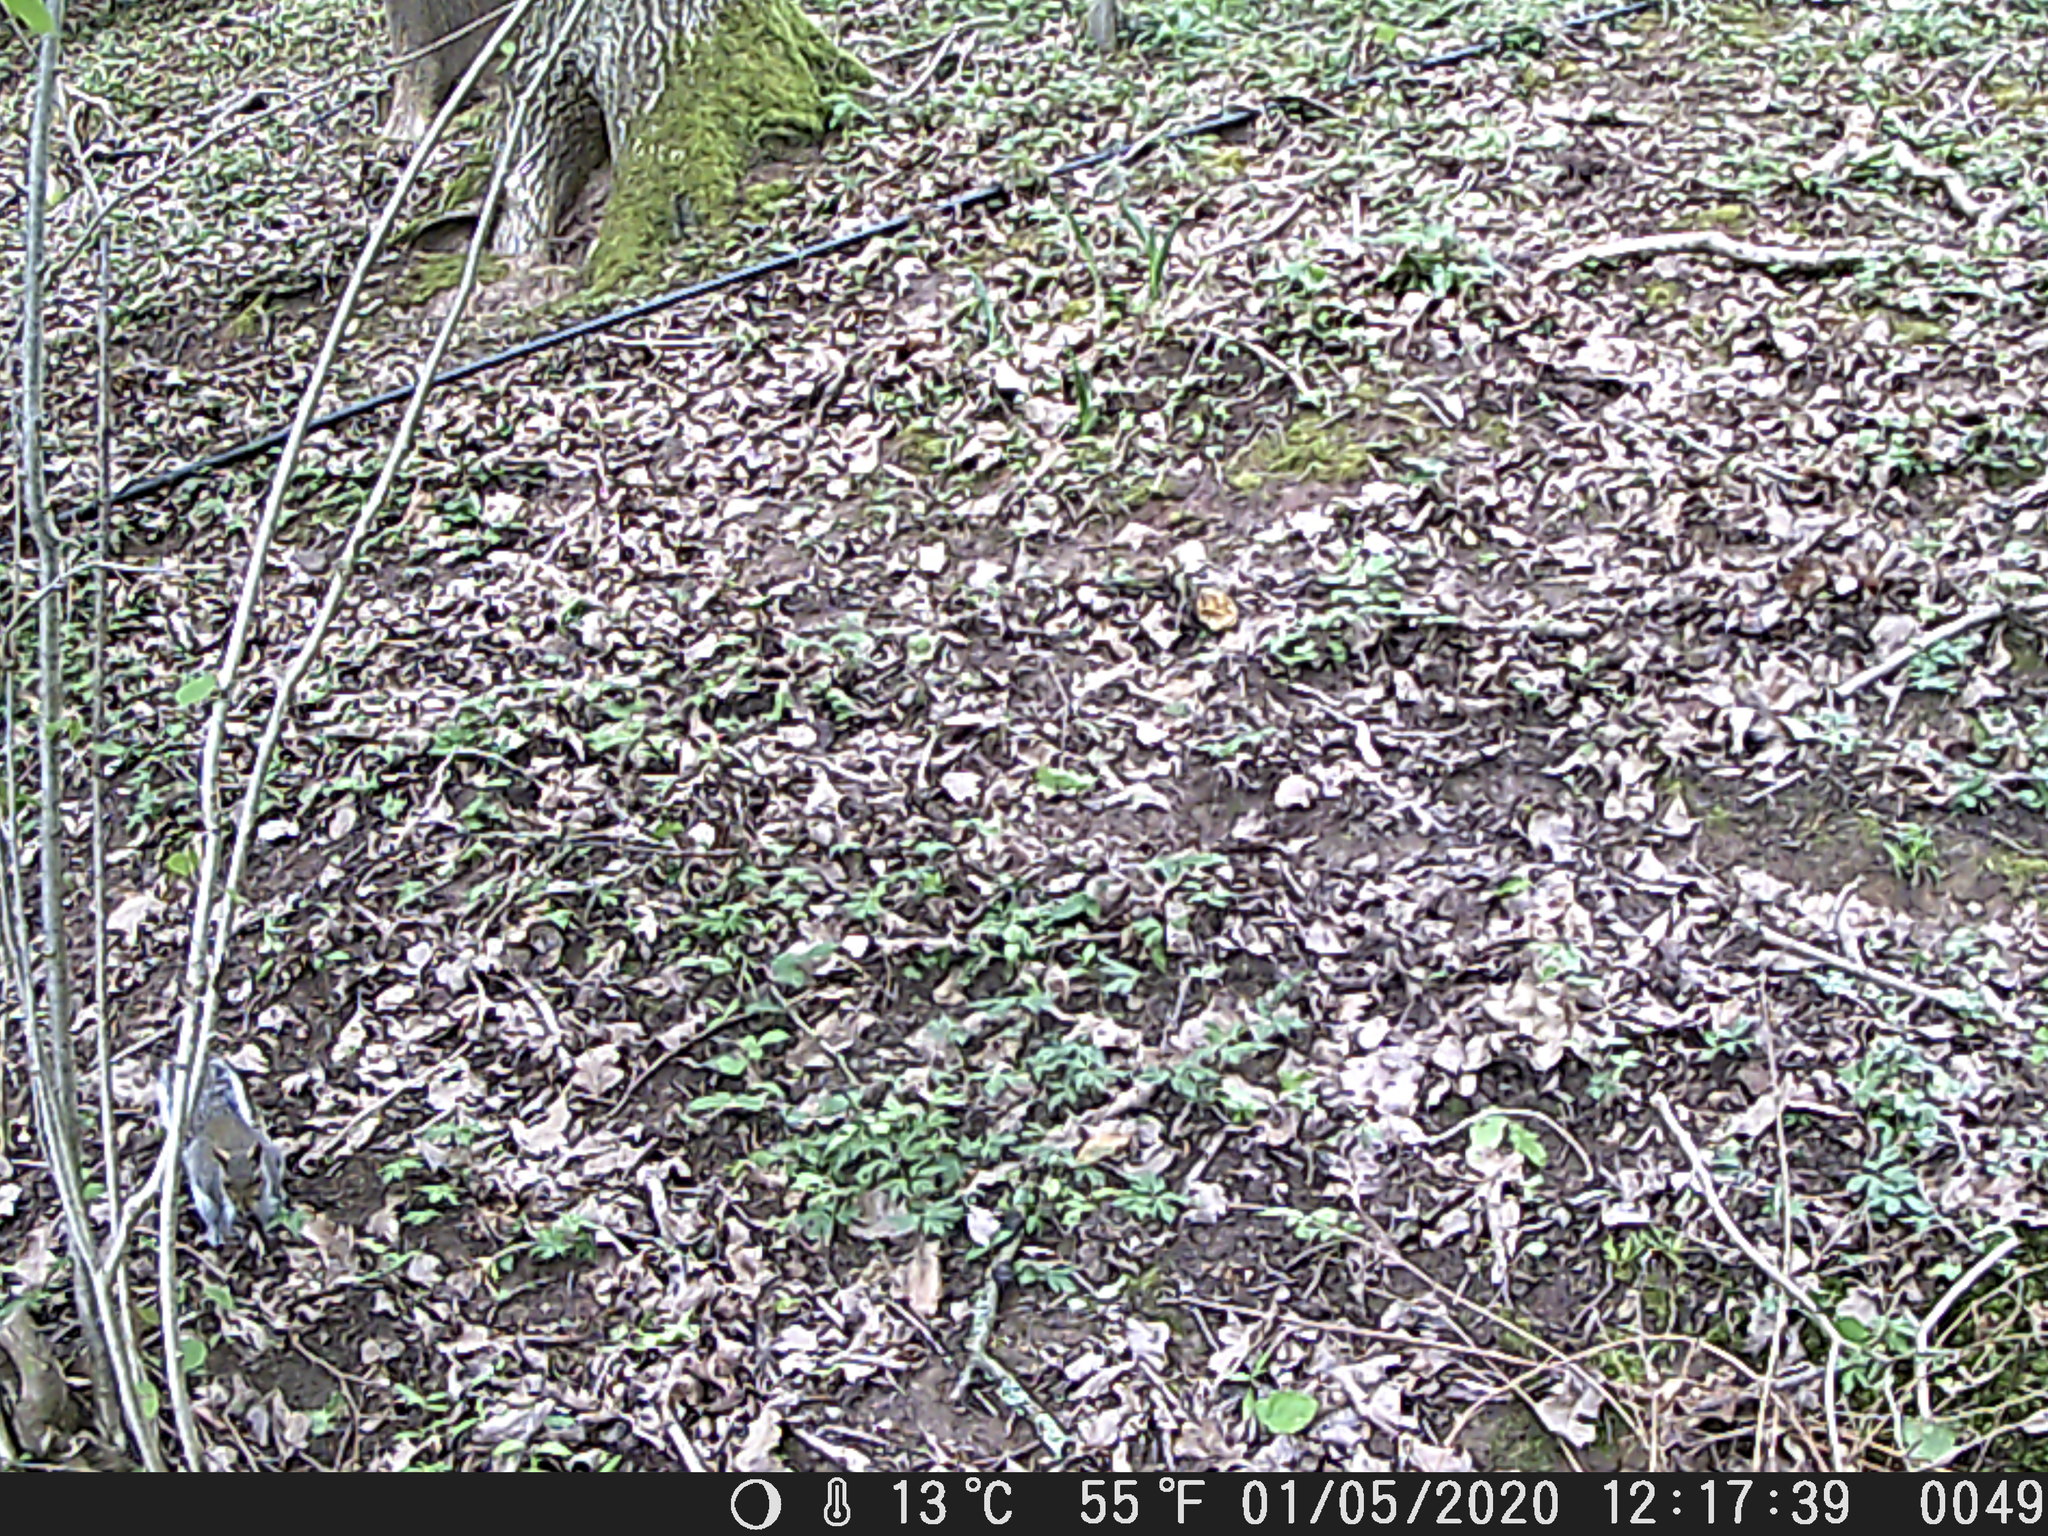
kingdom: Animalia
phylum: Chordata
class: Mammalia
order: Rodentia
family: Sciuridae
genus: Sciurus
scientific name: Sciurus carolinensis
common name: Eastern gray squirrel
